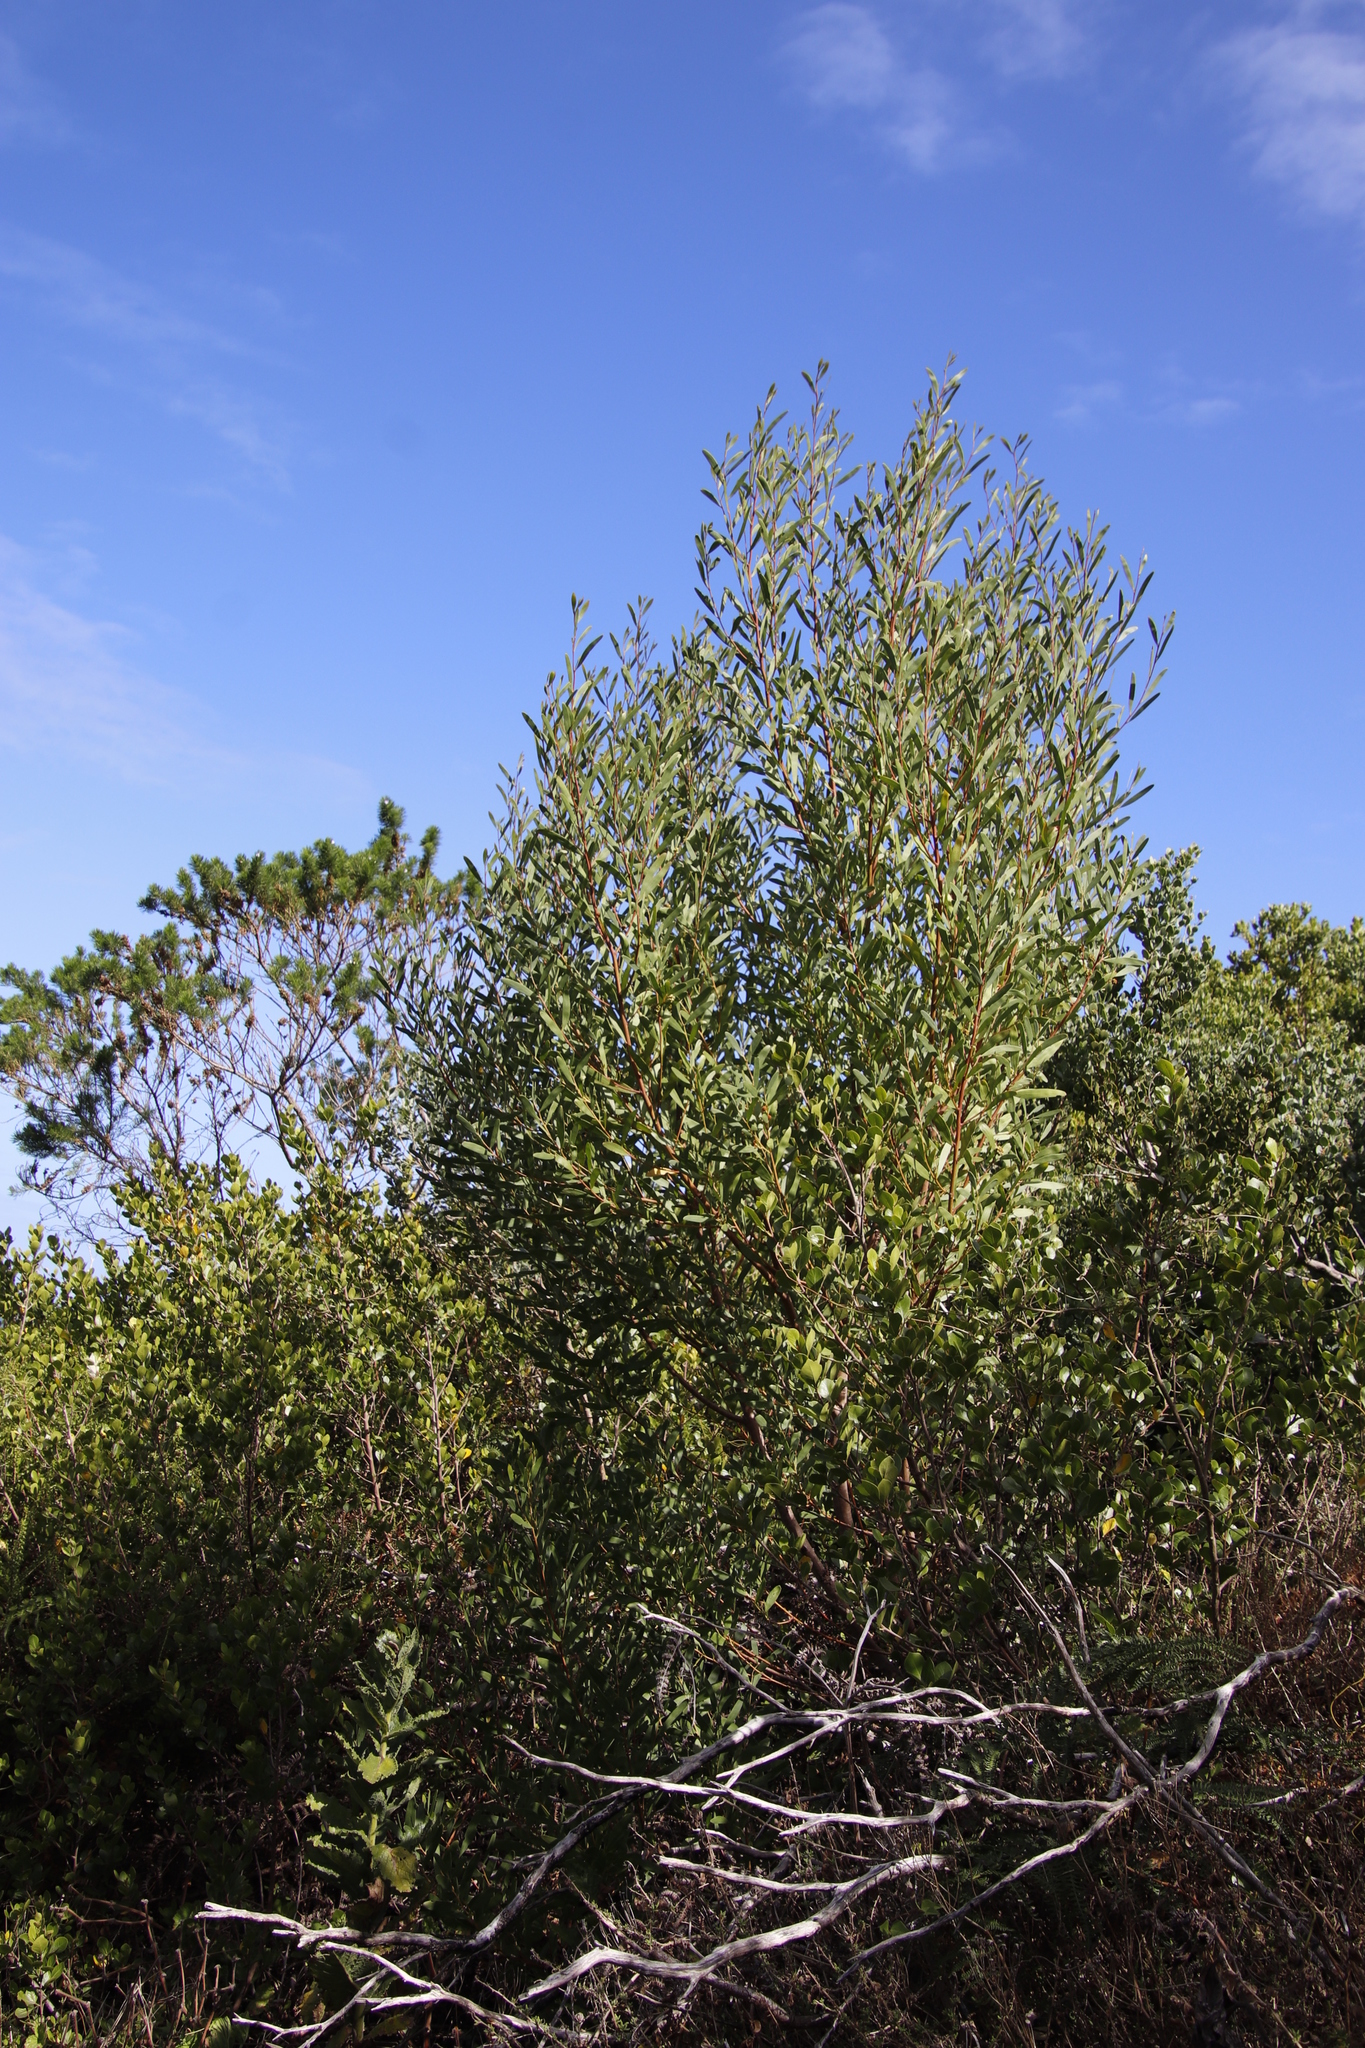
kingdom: Plantae
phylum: Tracheophyta
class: Magnoliopsida
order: Fabales
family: Fabaceae
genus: Acacia
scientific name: Acacia cyclops
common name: Coastal wattle
